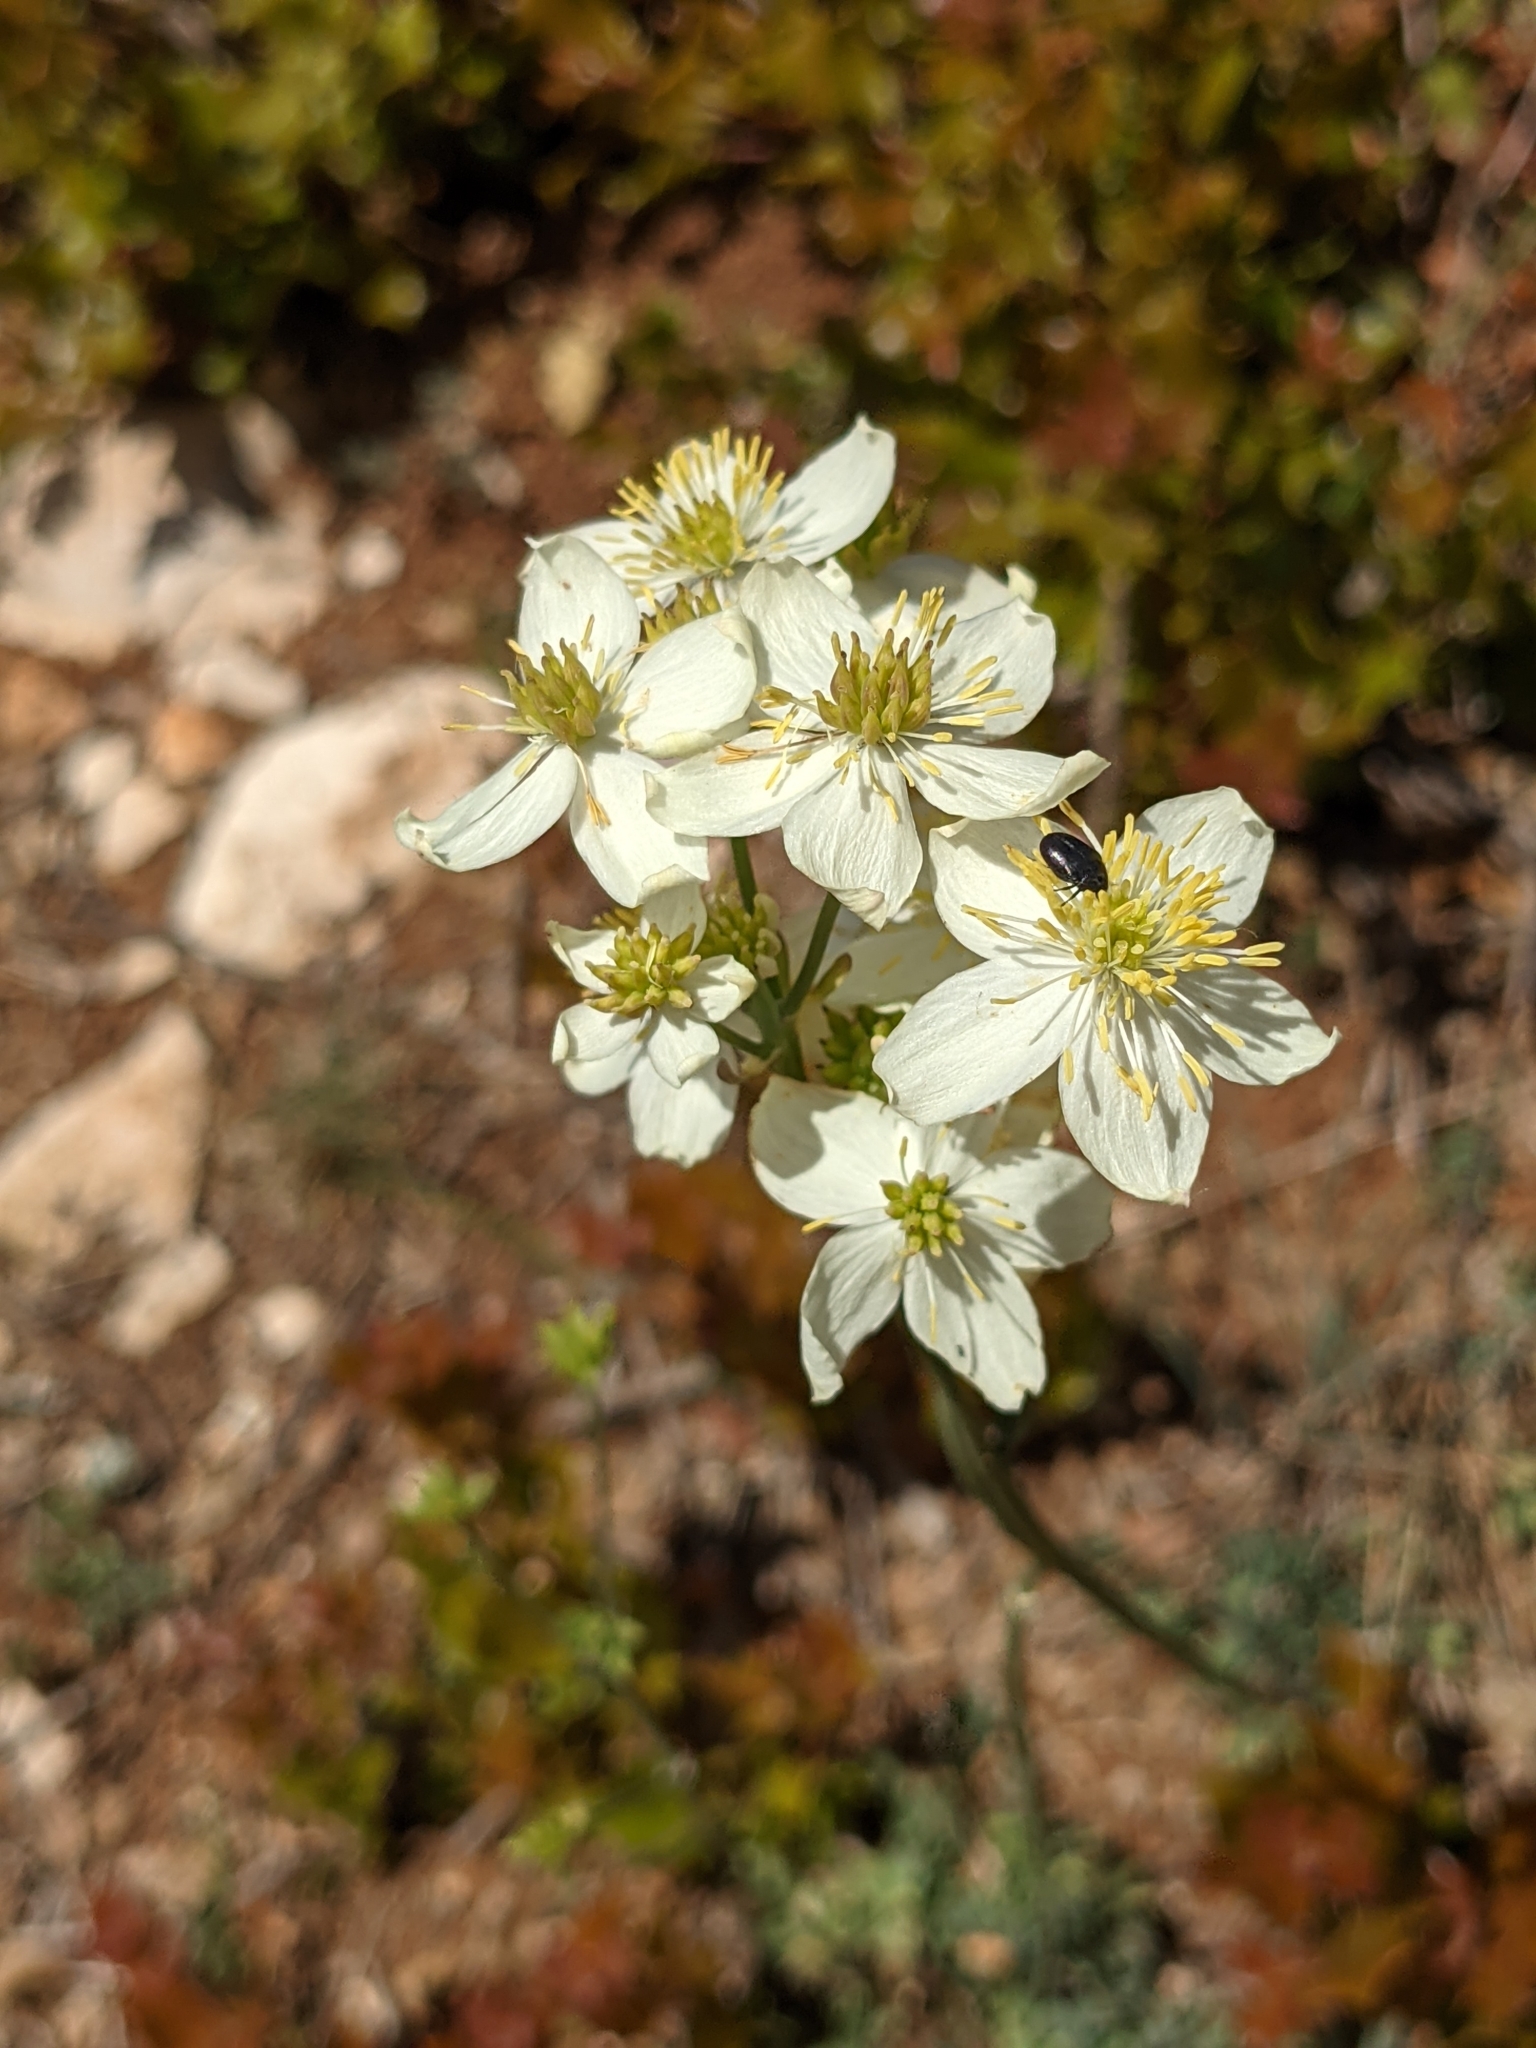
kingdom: Plantae
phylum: Tracheophyta
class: Magnoliopsida
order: Ranunculales
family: Ranunculaceae
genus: Thalictrum
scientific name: Thalictrum tuberosum
